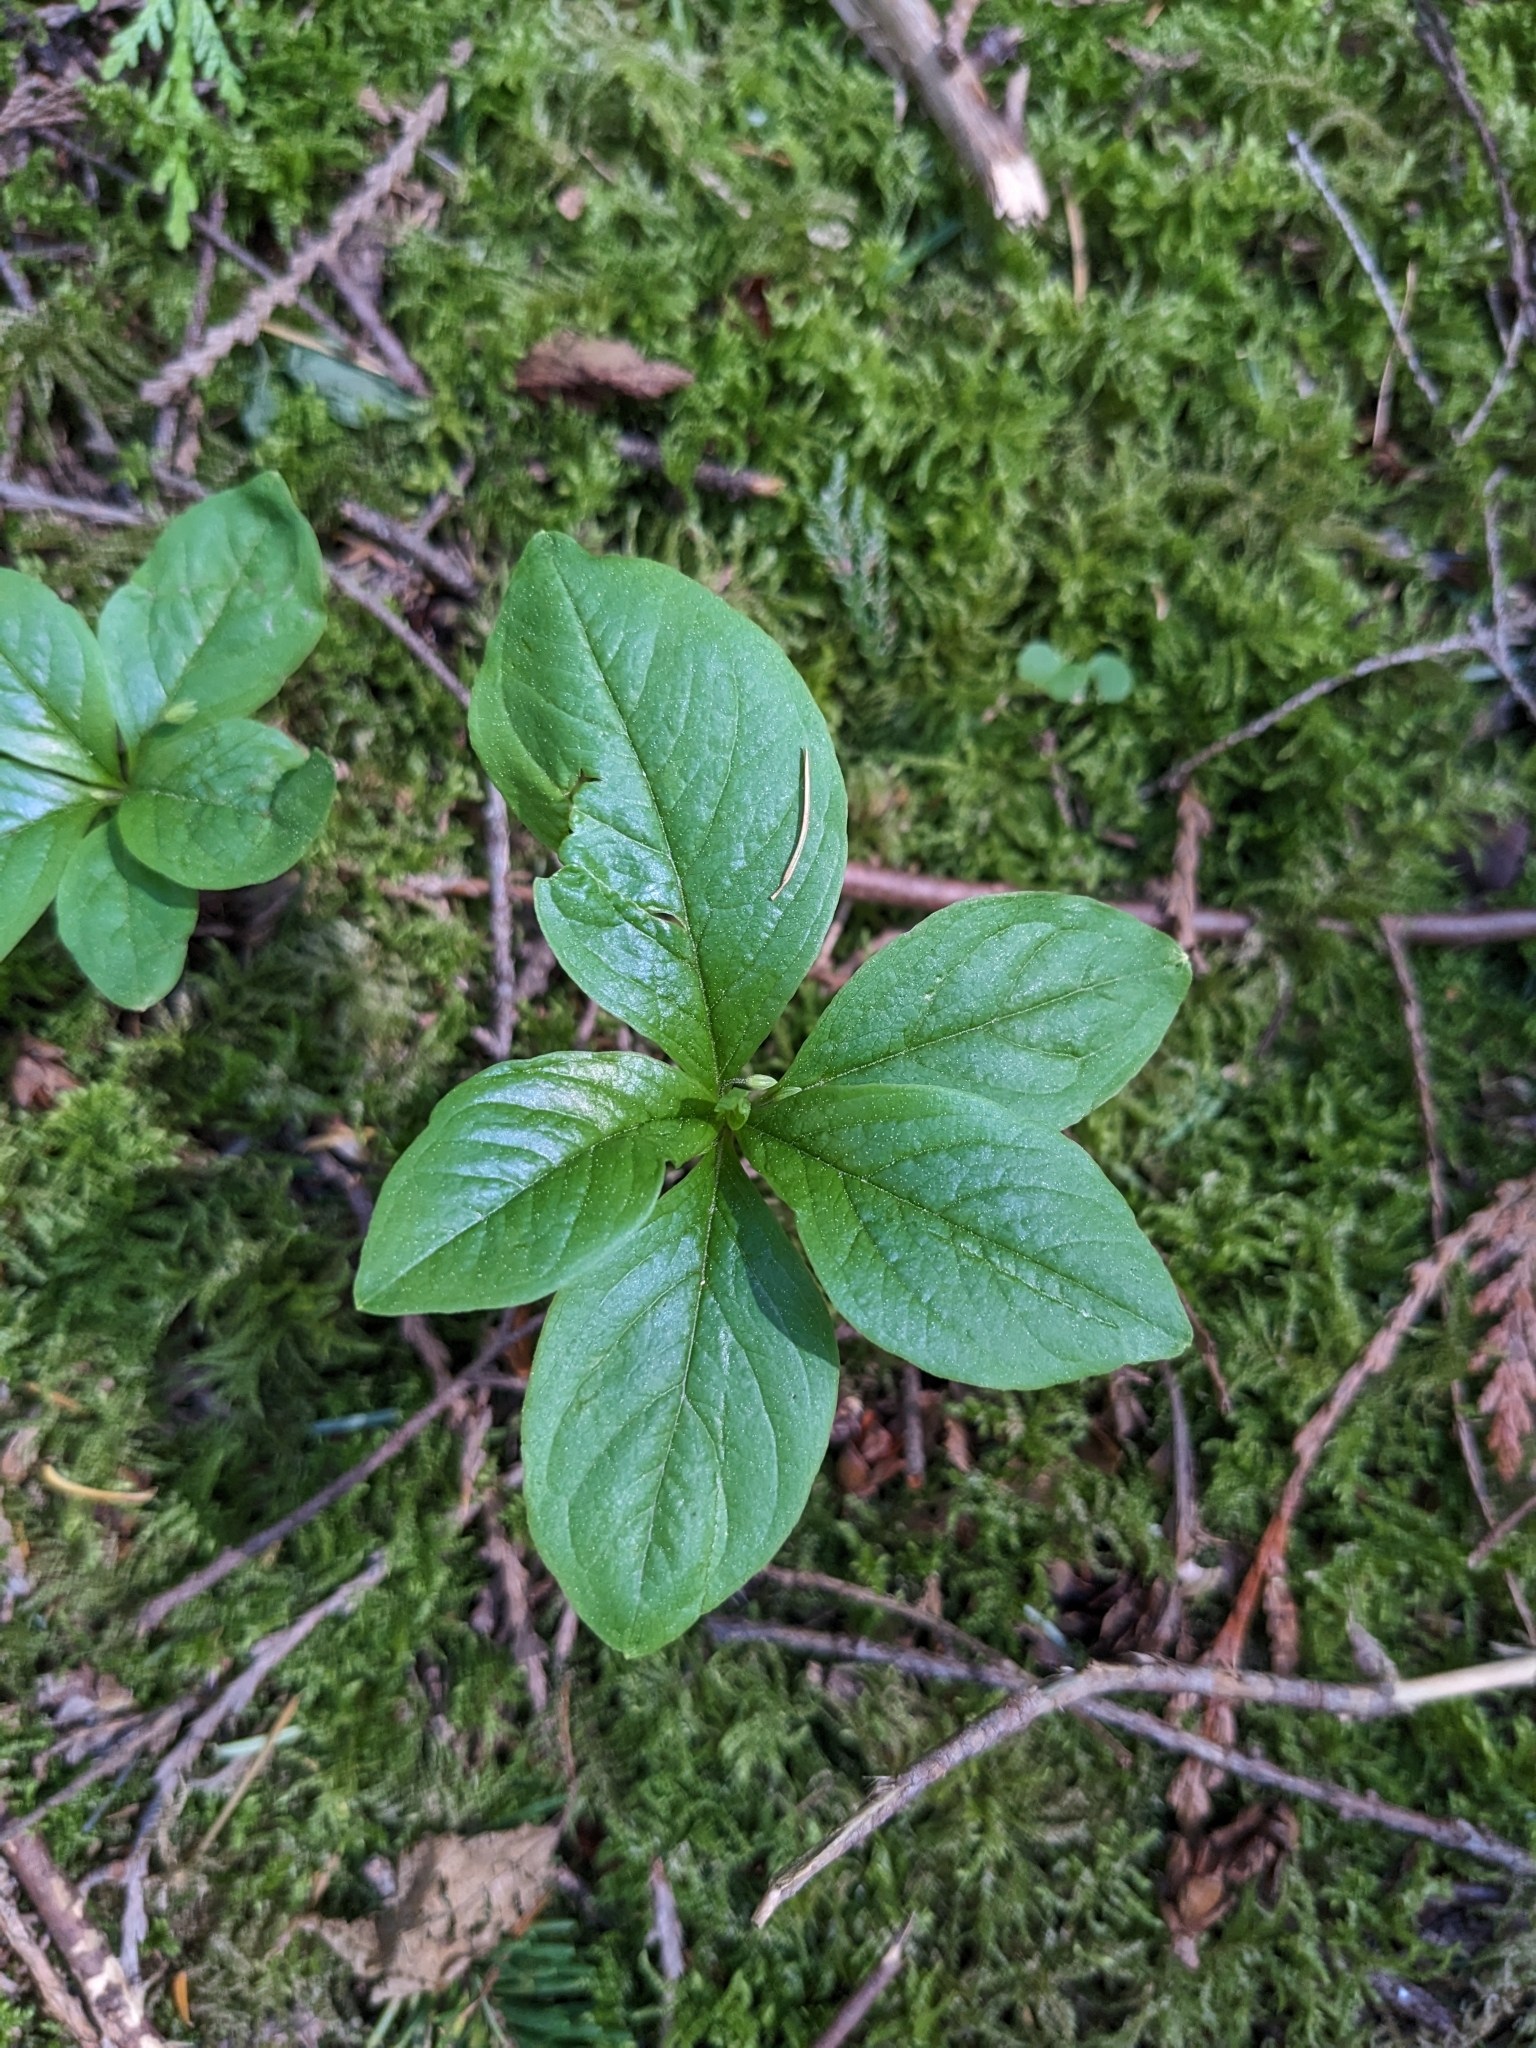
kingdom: Plantae
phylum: Tracheophyta
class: Magnoliopsida
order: Ericales
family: Primulaceae
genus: Lysimachia
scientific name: Lysimachia latifolia
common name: Pacific starflower
